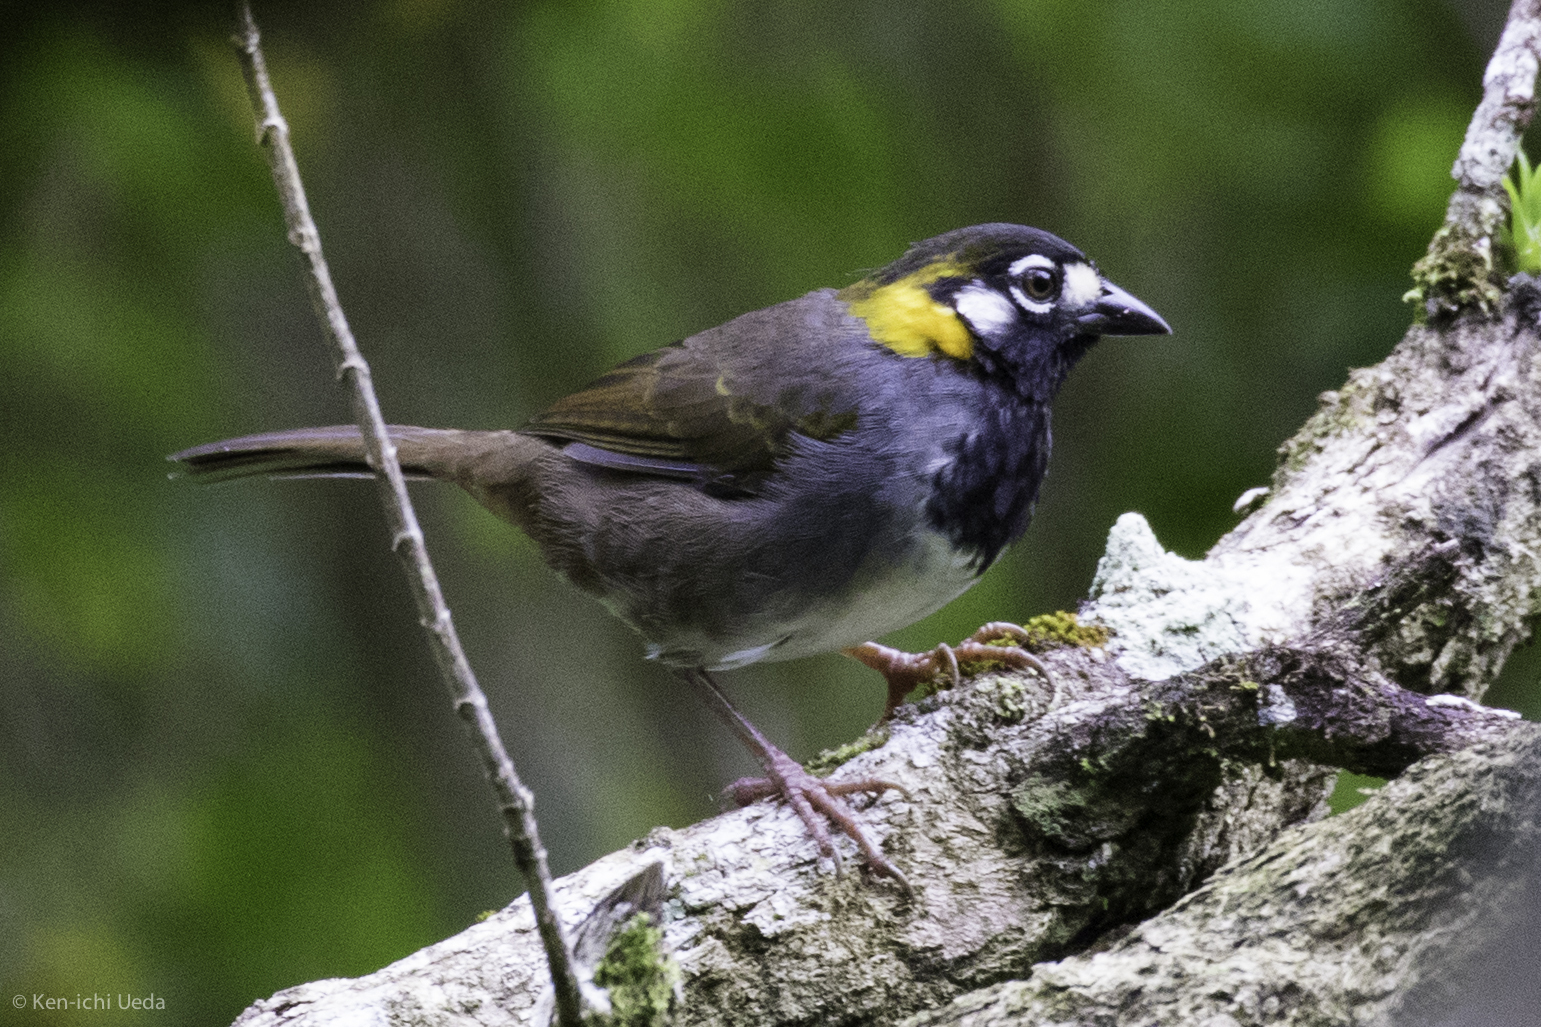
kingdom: Animalia
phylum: Chordata
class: Aves
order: Passeriformes
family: Passerellidae
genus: Melozone
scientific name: Melozone leucotis
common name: White-eared ground-sparrow
